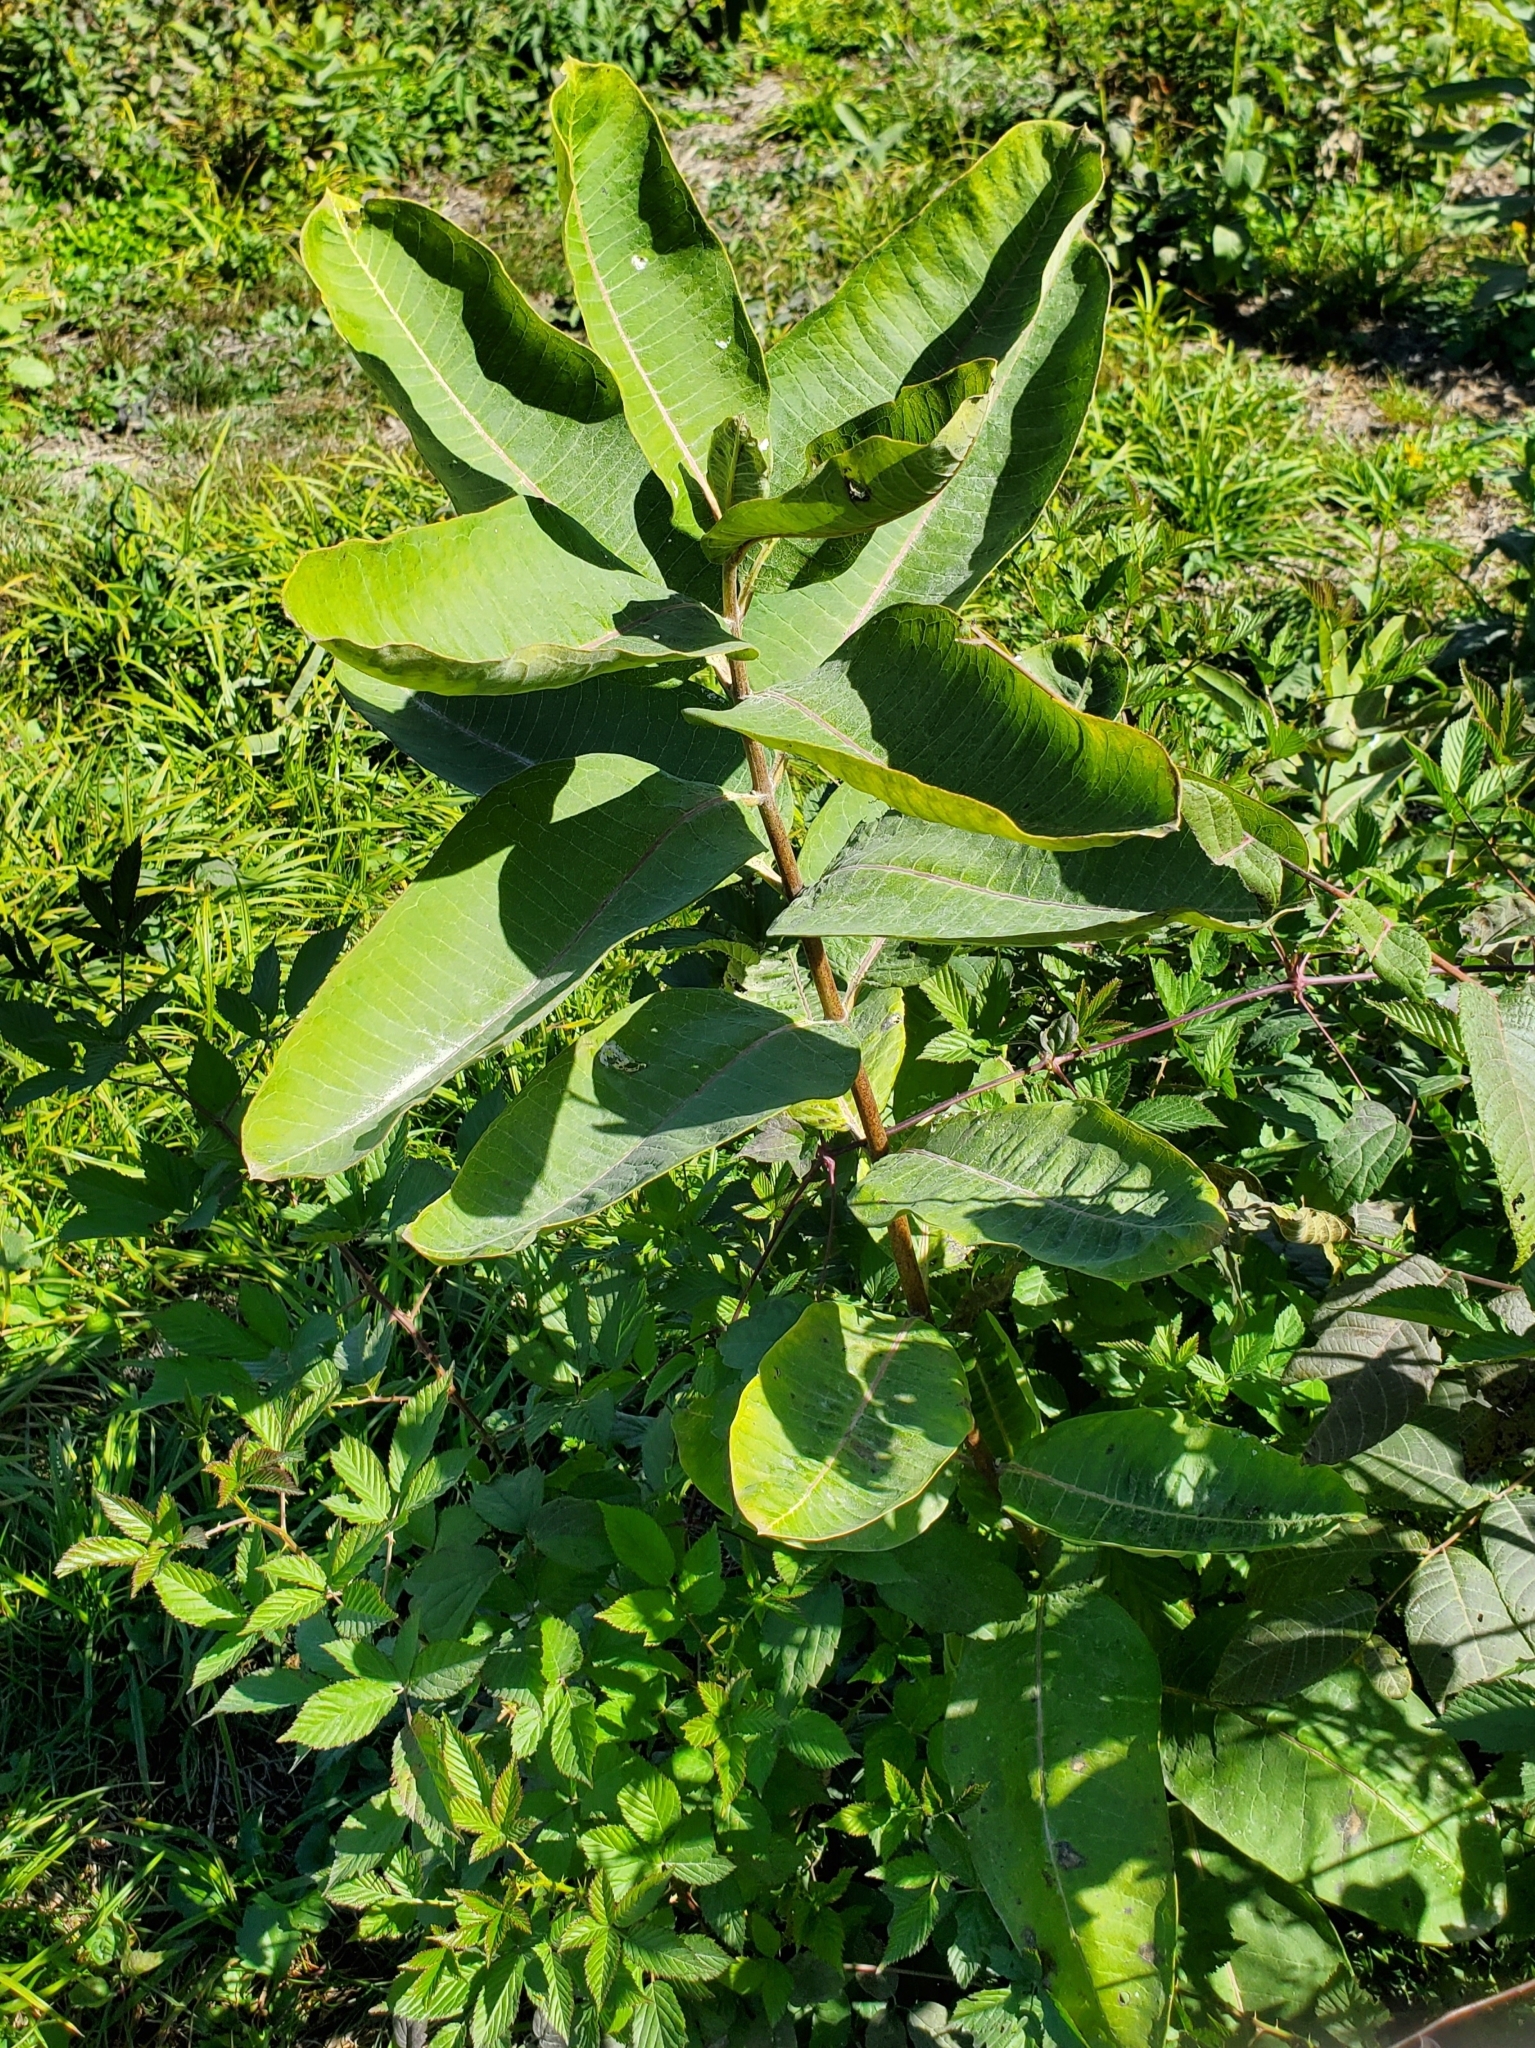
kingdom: Plantae
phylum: Tracheophyta
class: Magnoliopsida
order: Gentianales
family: Apocynaceae
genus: Asclepias
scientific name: Asclepias syriaca
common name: Common milkweed
